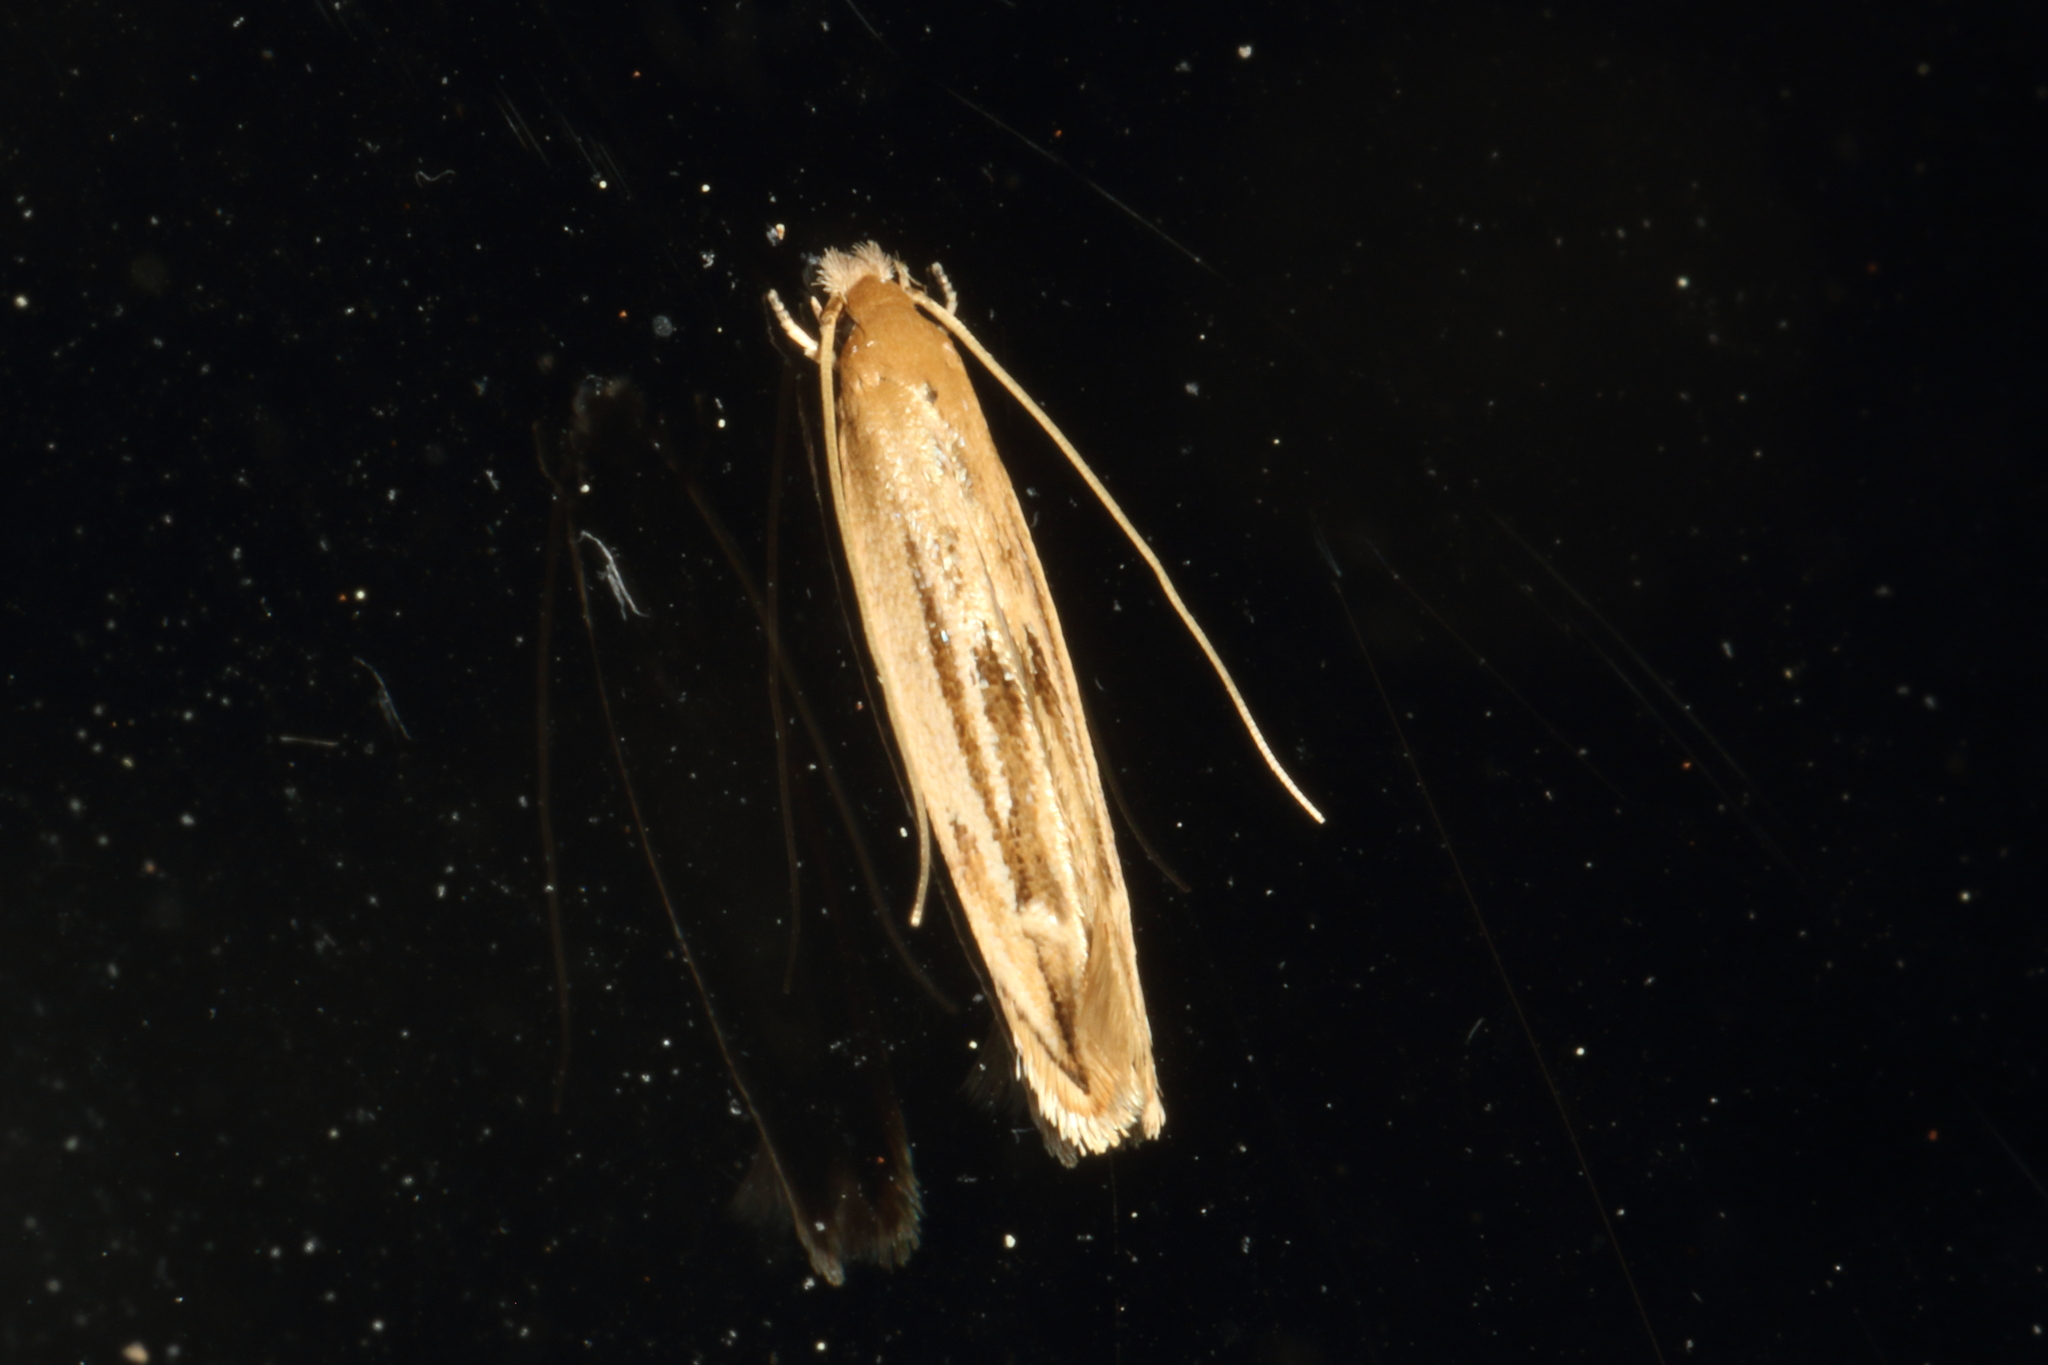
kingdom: Animalia
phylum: Arthropoda
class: Insecta
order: Lepidoptera
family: Tineidae
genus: Amphixystis
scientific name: Amphixystis hapsimacha
